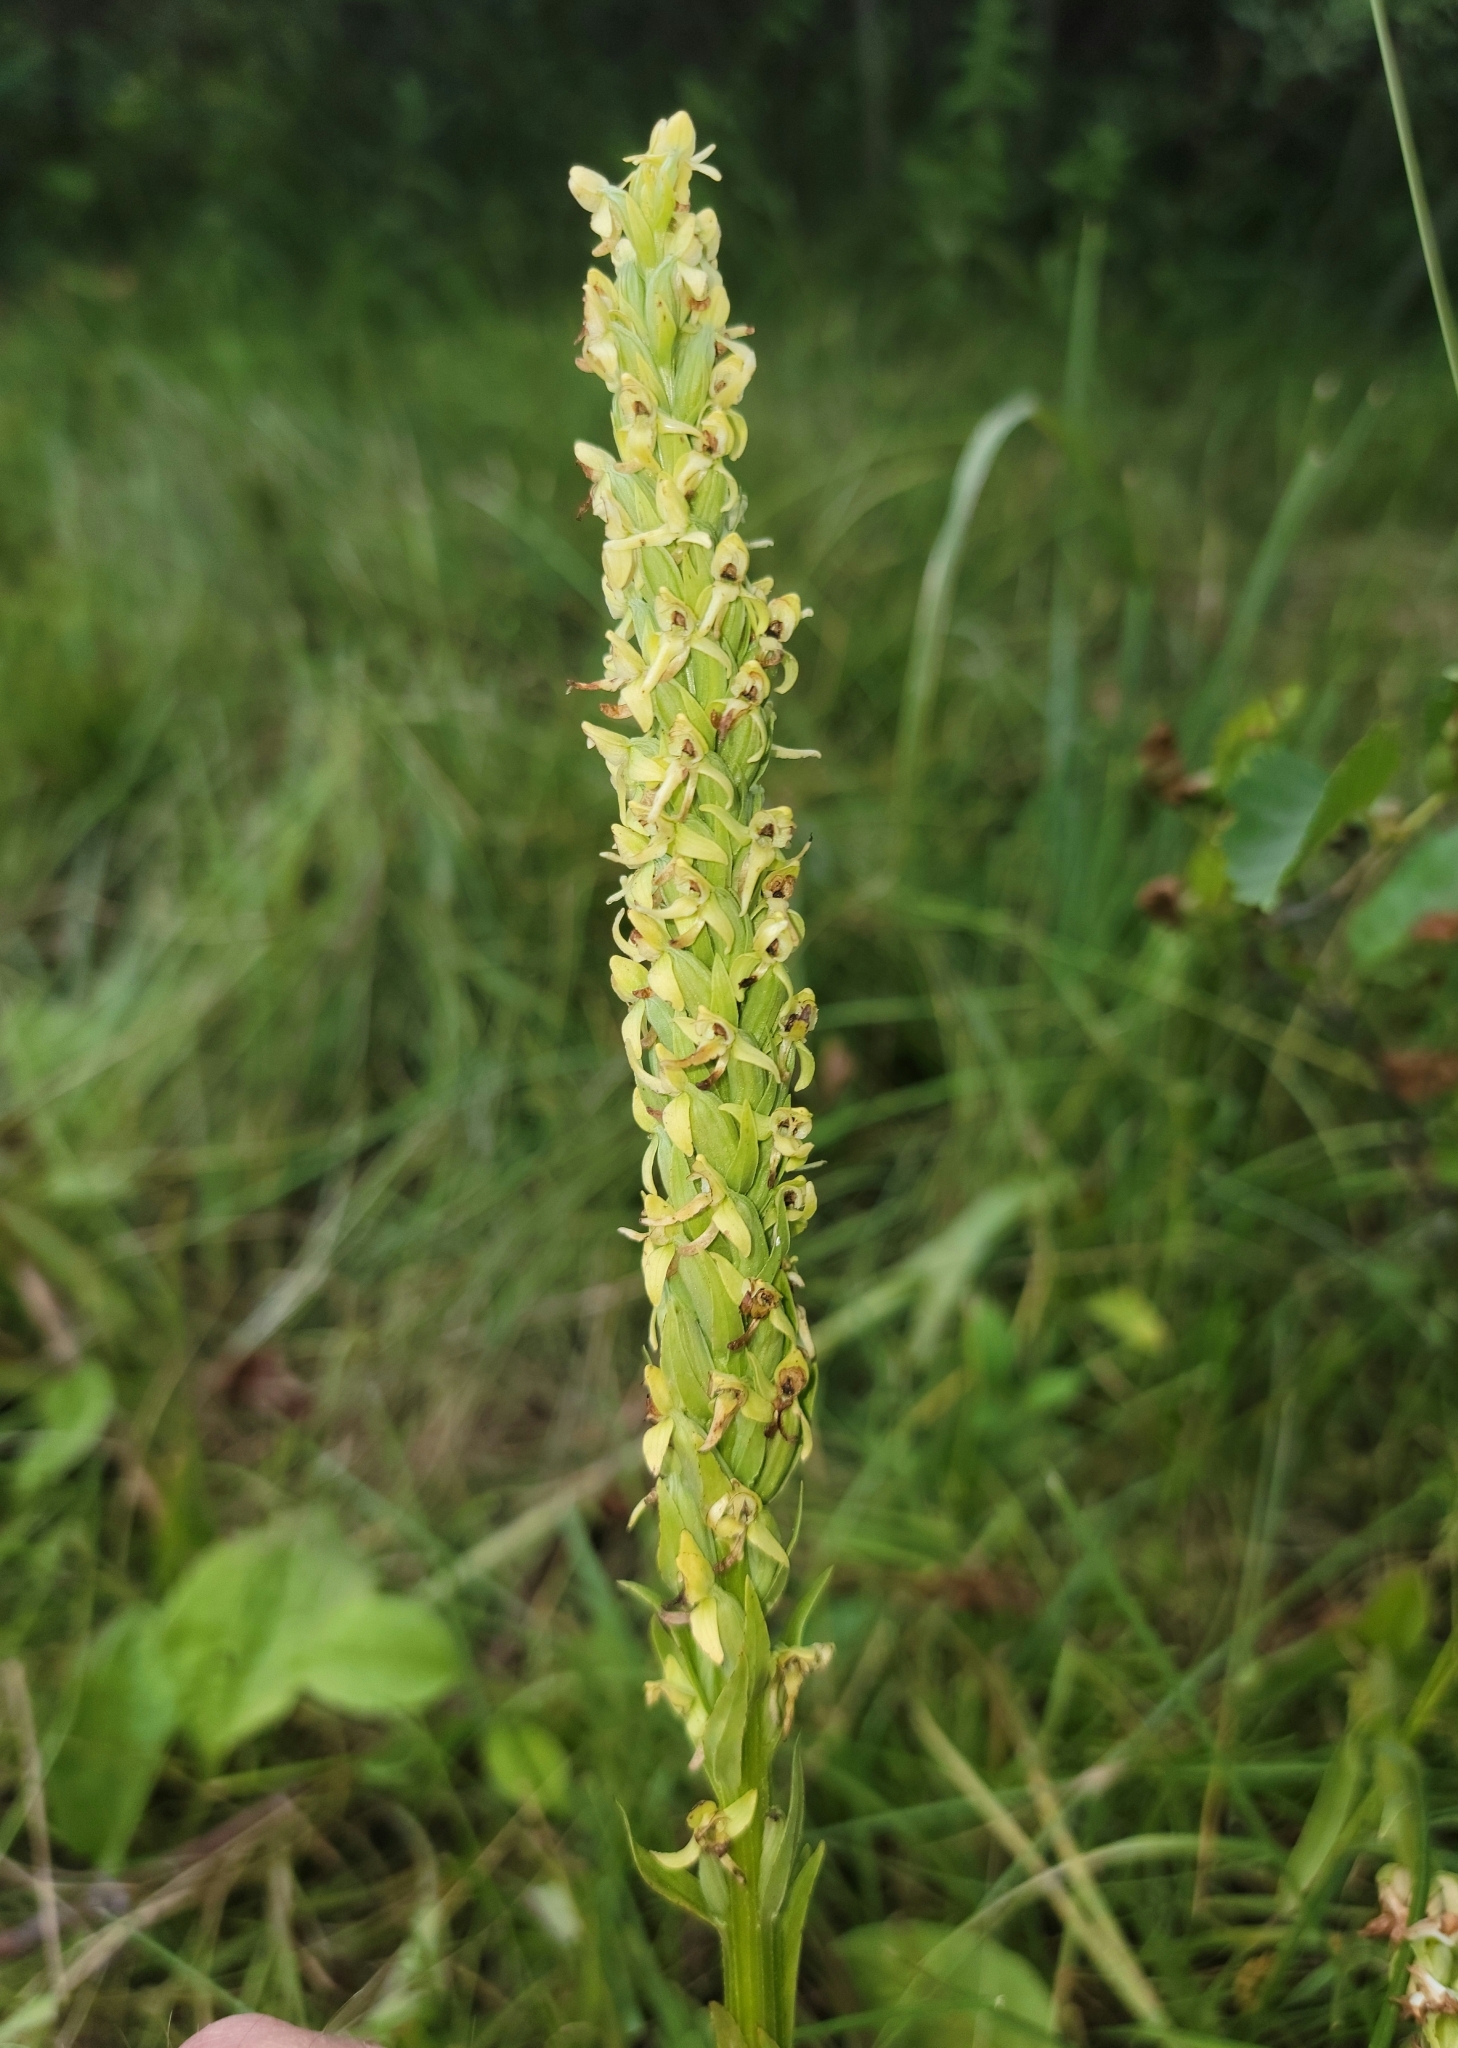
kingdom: Plantae
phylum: Tracheophyta
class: Liliopsida
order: Asparagales
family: Orchidaceae
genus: Platanthera
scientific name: Platanthera huronensis
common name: Fragrant green orchid
